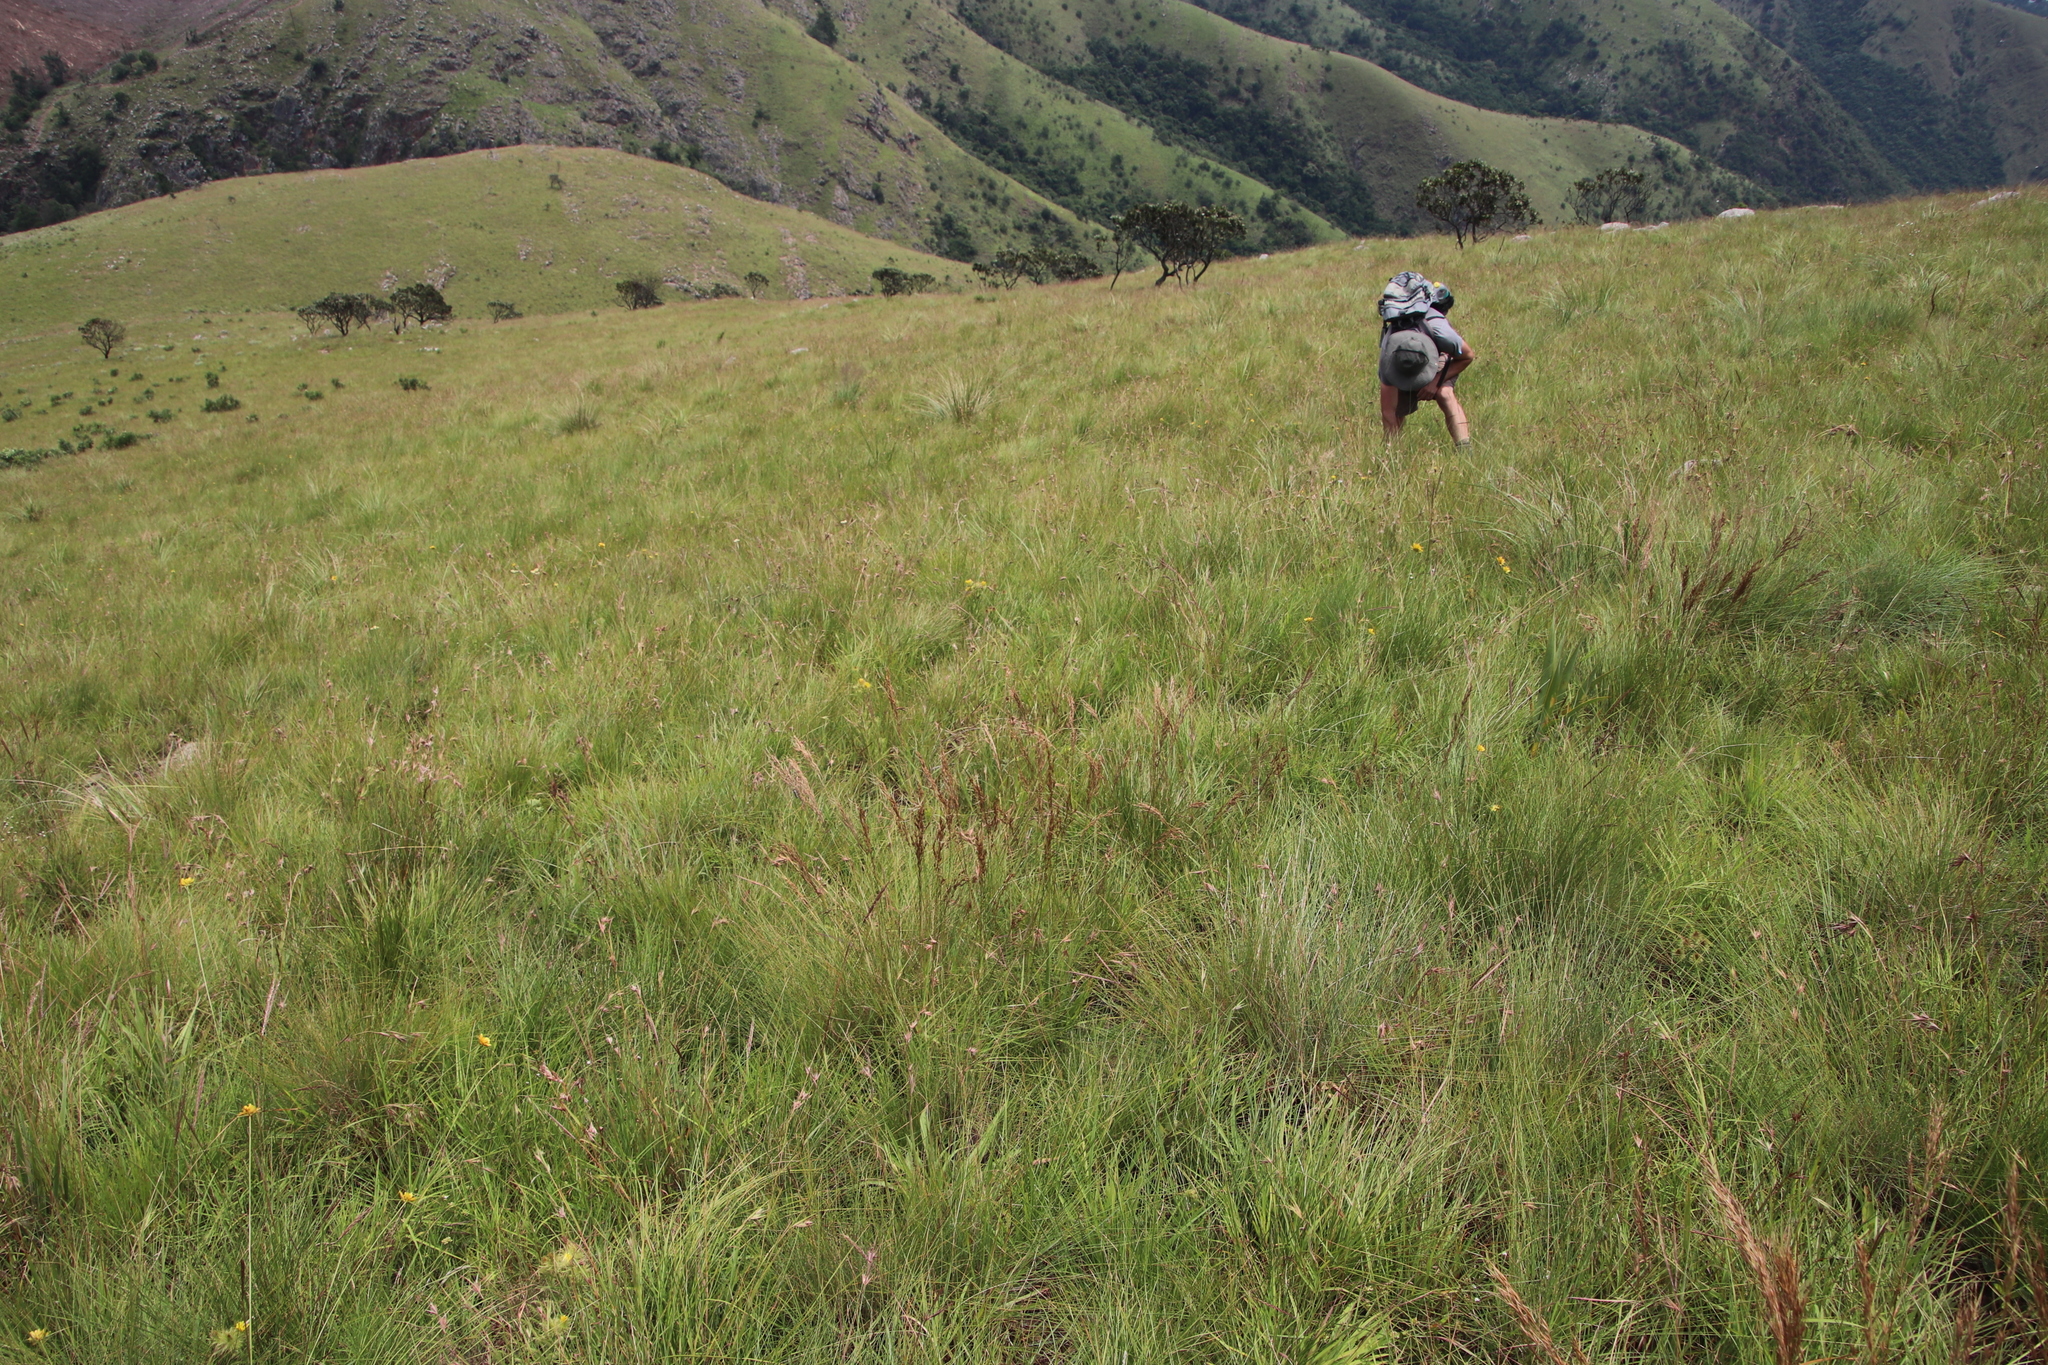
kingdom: Plantae
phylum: Tracheophyta
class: Liliopsida
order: Poales
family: Poaceae
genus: Loudetia
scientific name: Loudetia simplex
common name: Common russet grass
